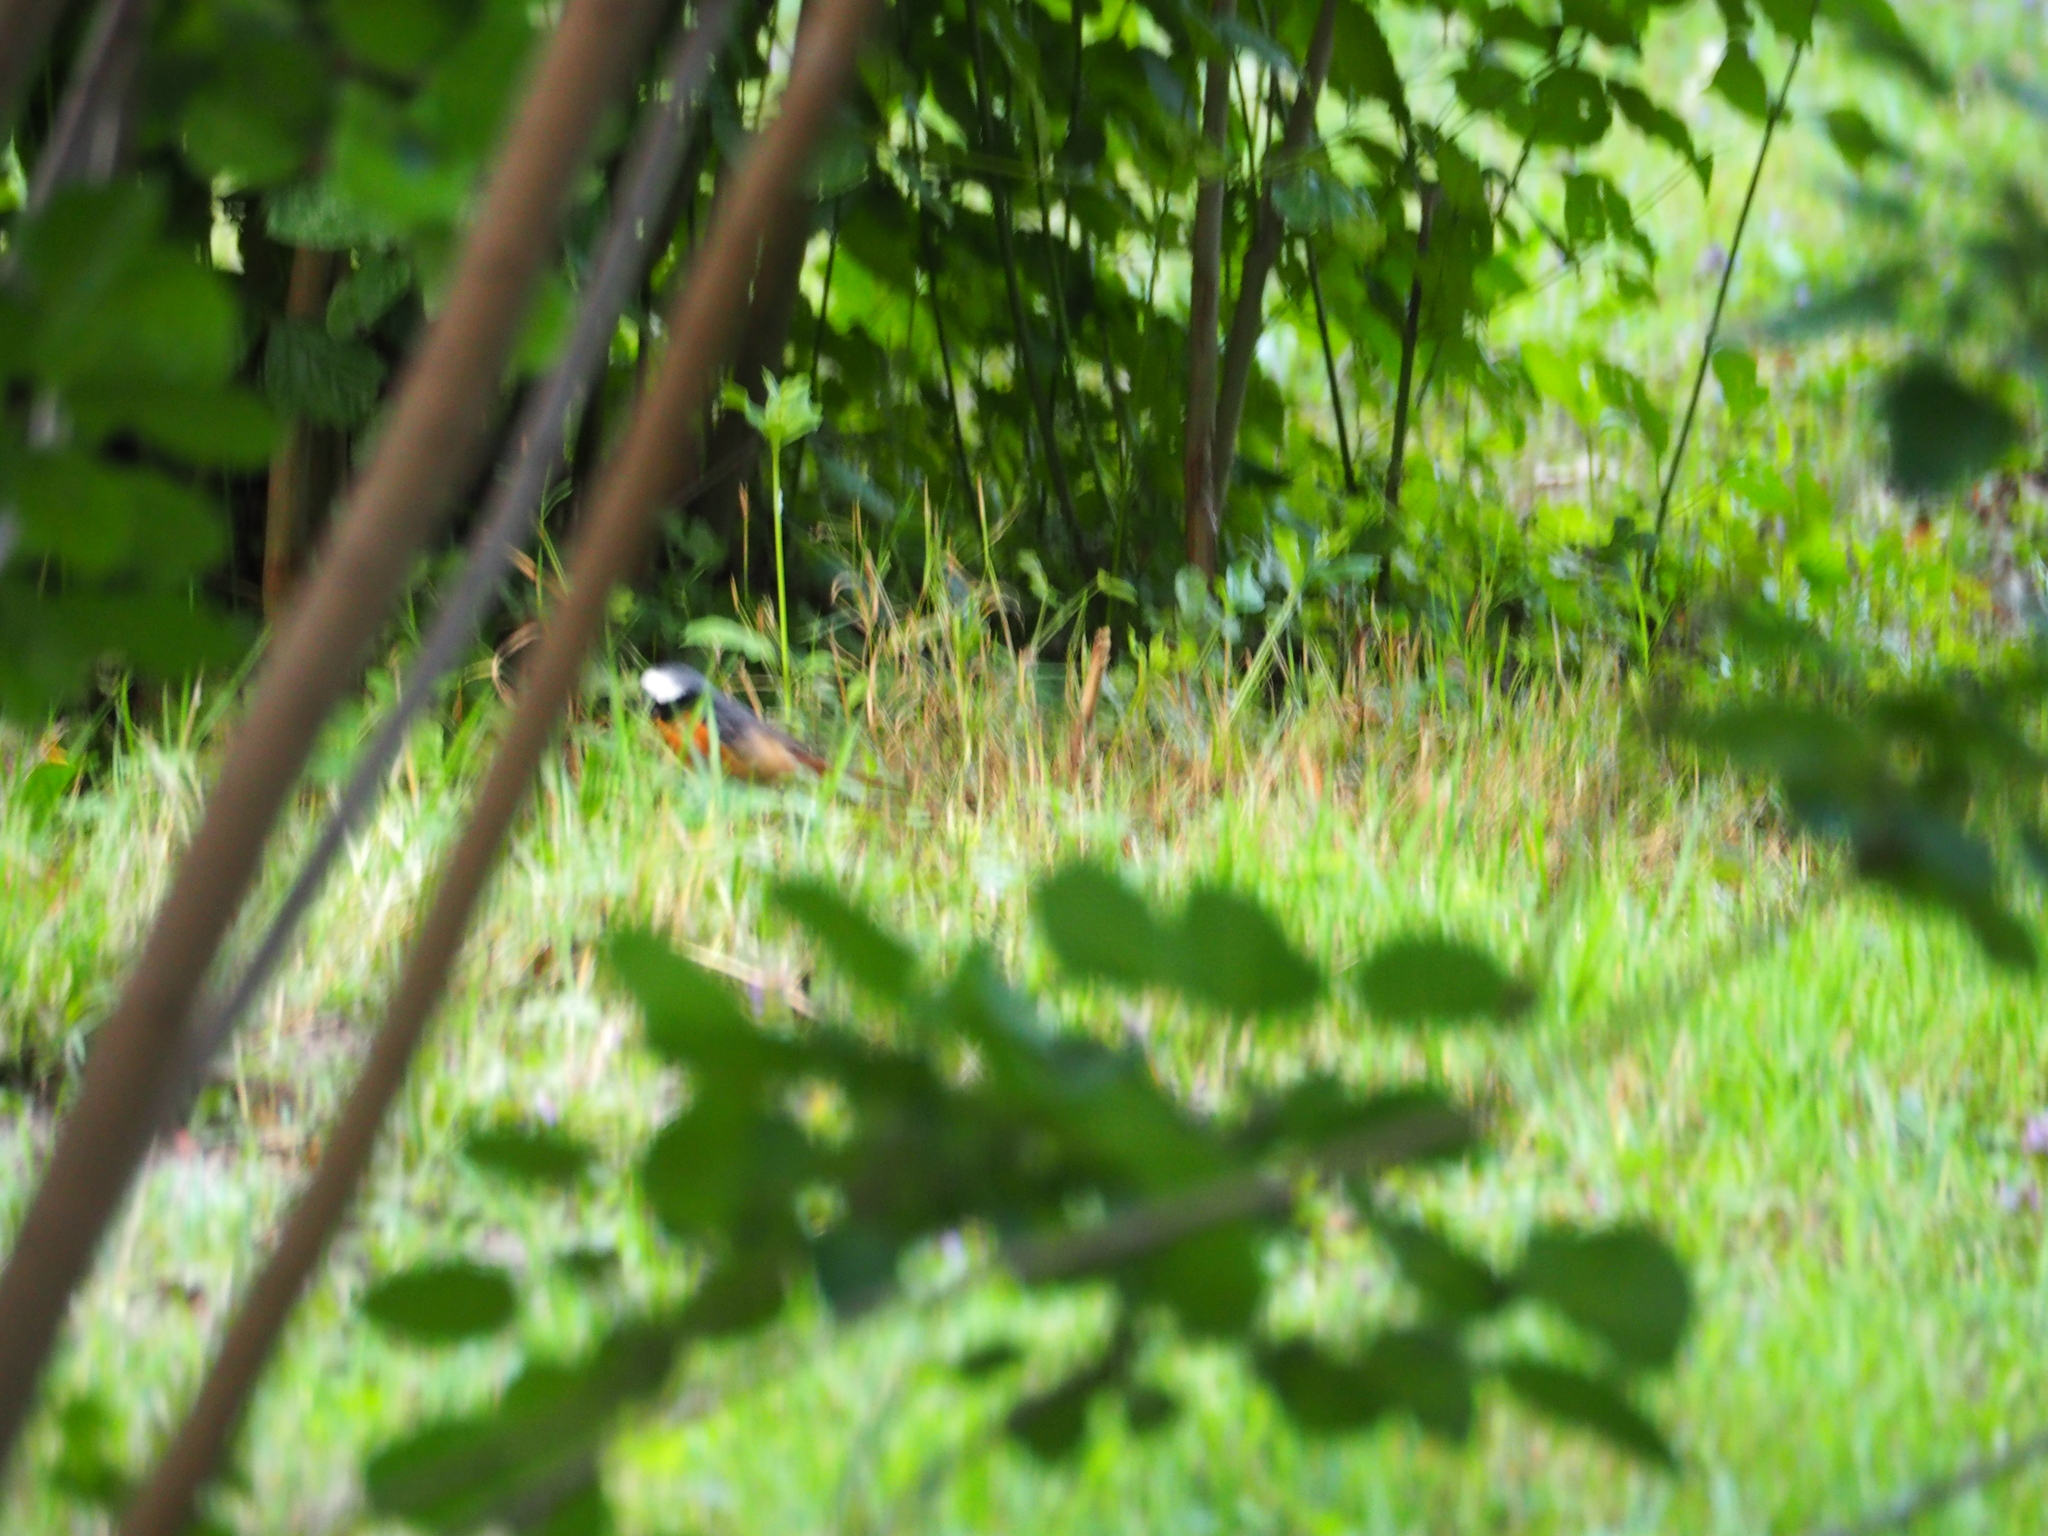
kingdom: Animalia
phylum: Chordata
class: Aves
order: Passeriformes
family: Muscicapidae
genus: Phoenicurus
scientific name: Phoenicurus phoenicurus
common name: Common redstart
